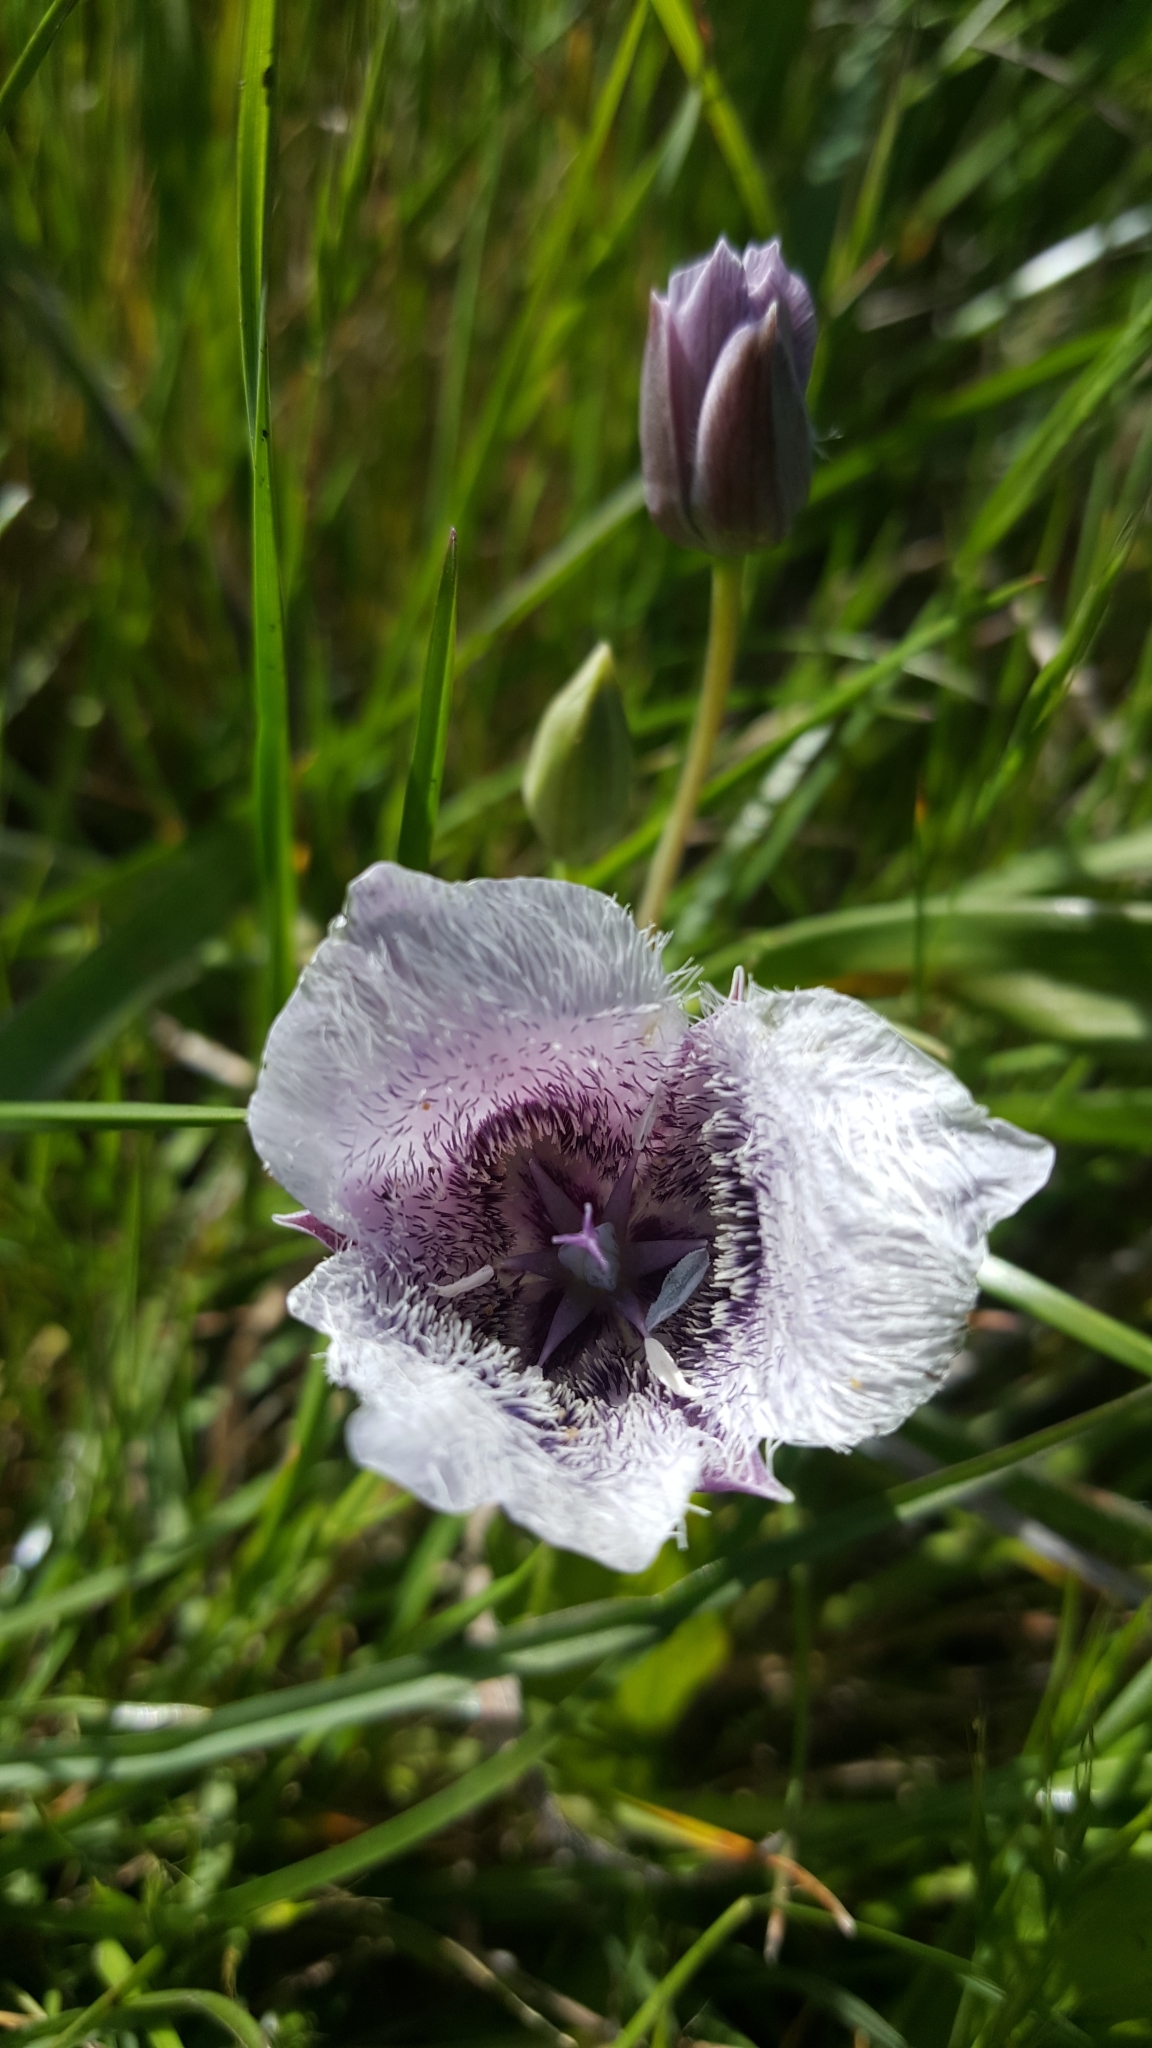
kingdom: Plantae
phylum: Tracheophyta
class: Liliopsida
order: Liliales
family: Liliaceae
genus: Calochortus
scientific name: Calochortus tolmiei
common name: Pussy-ears
